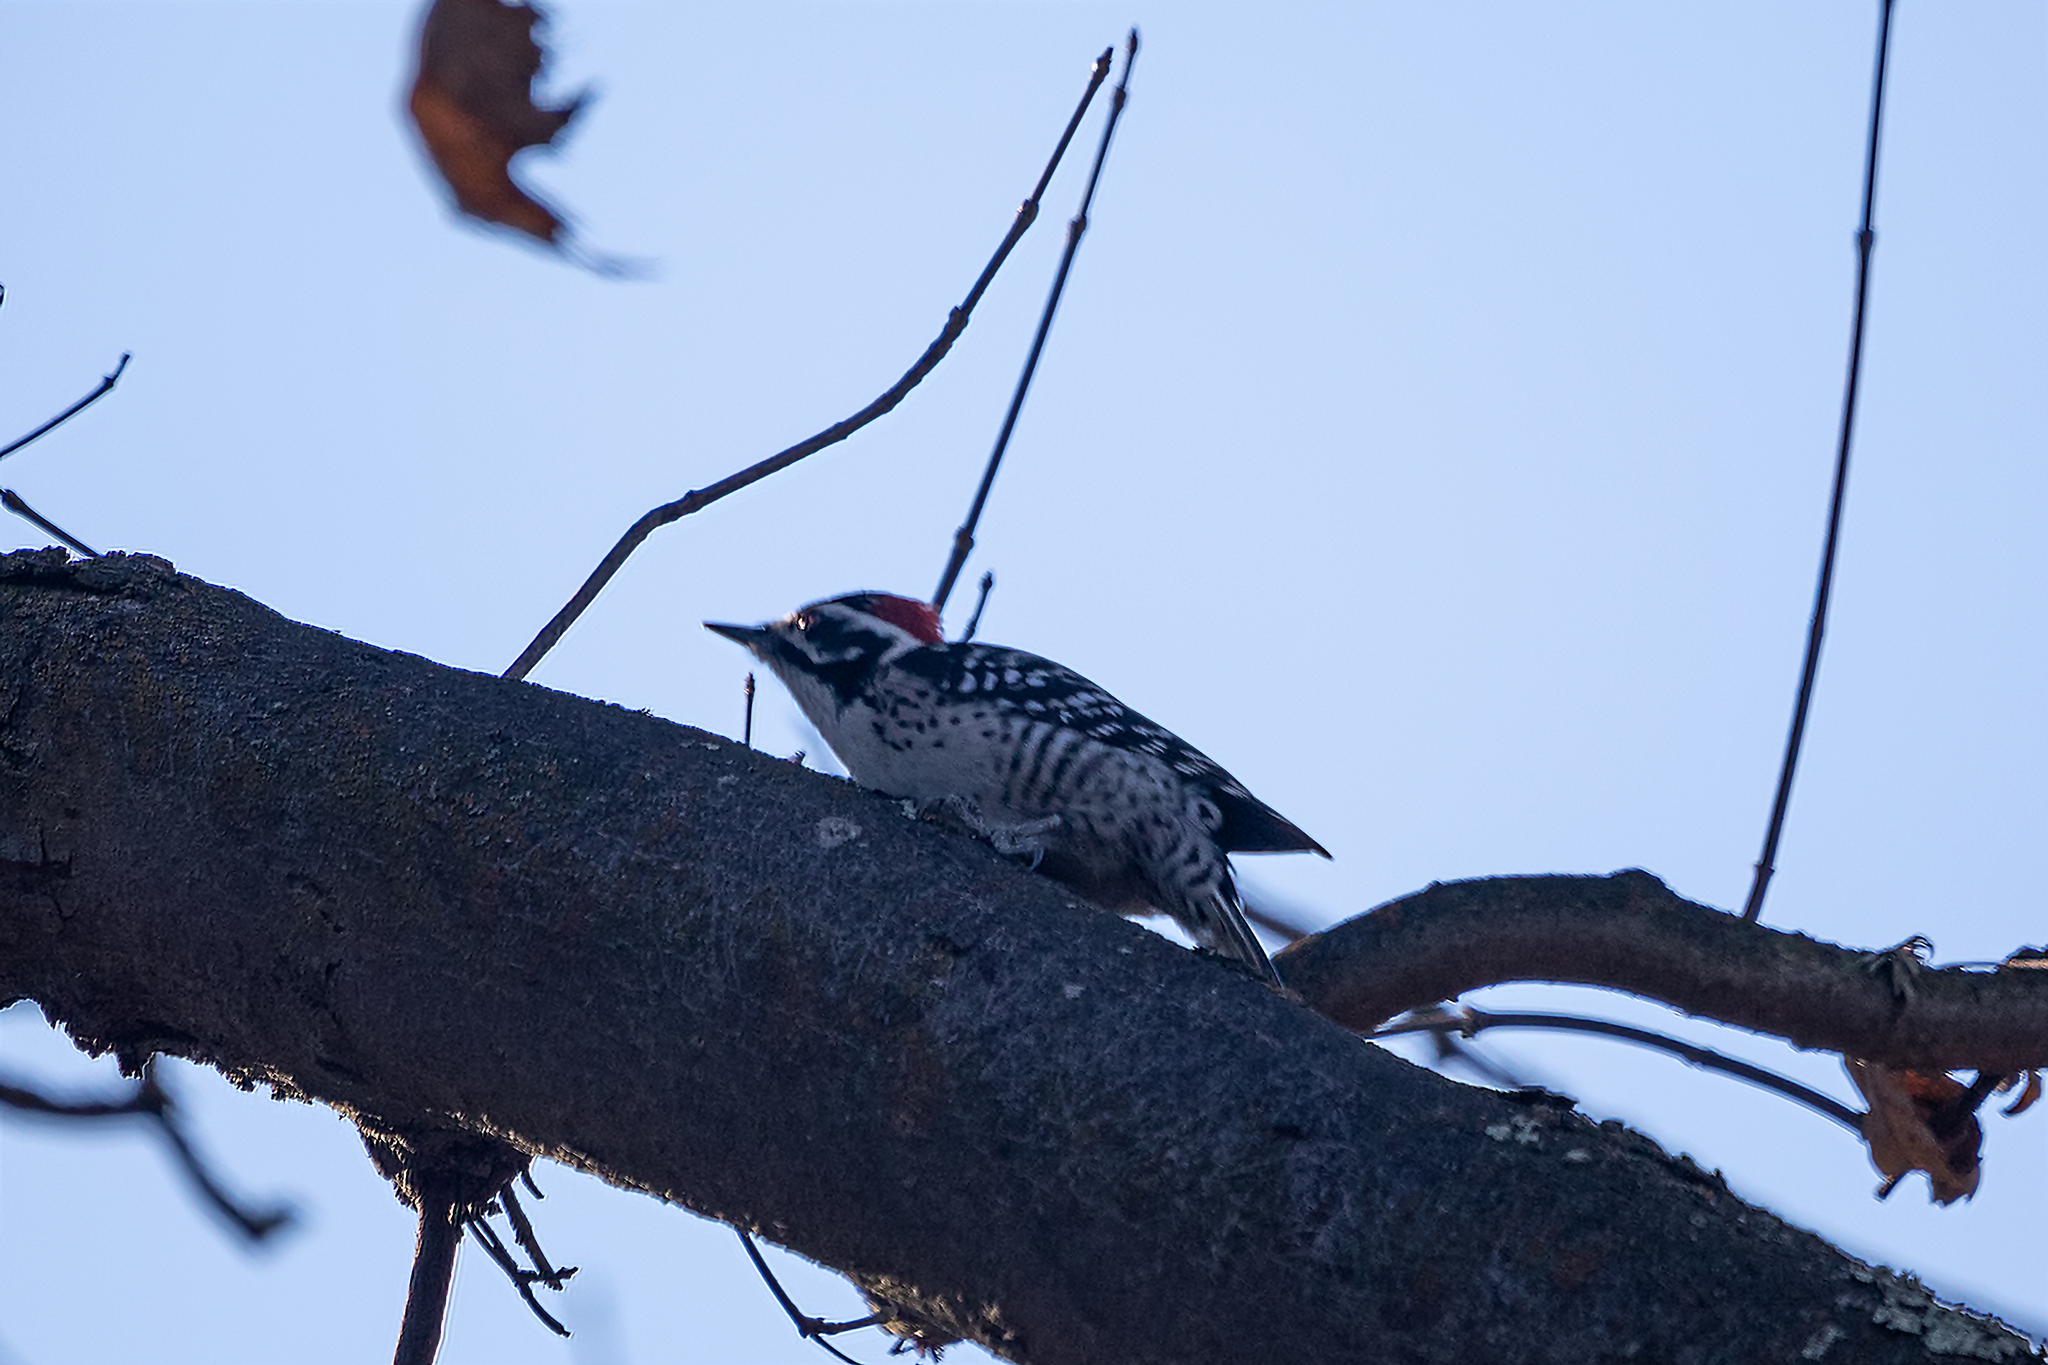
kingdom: Animalia
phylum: Chordata
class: Aves
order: Piciformes
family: Picidae
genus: Dryobates
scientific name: Dryobates nuttallii
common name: Nuttall's woodpecker
